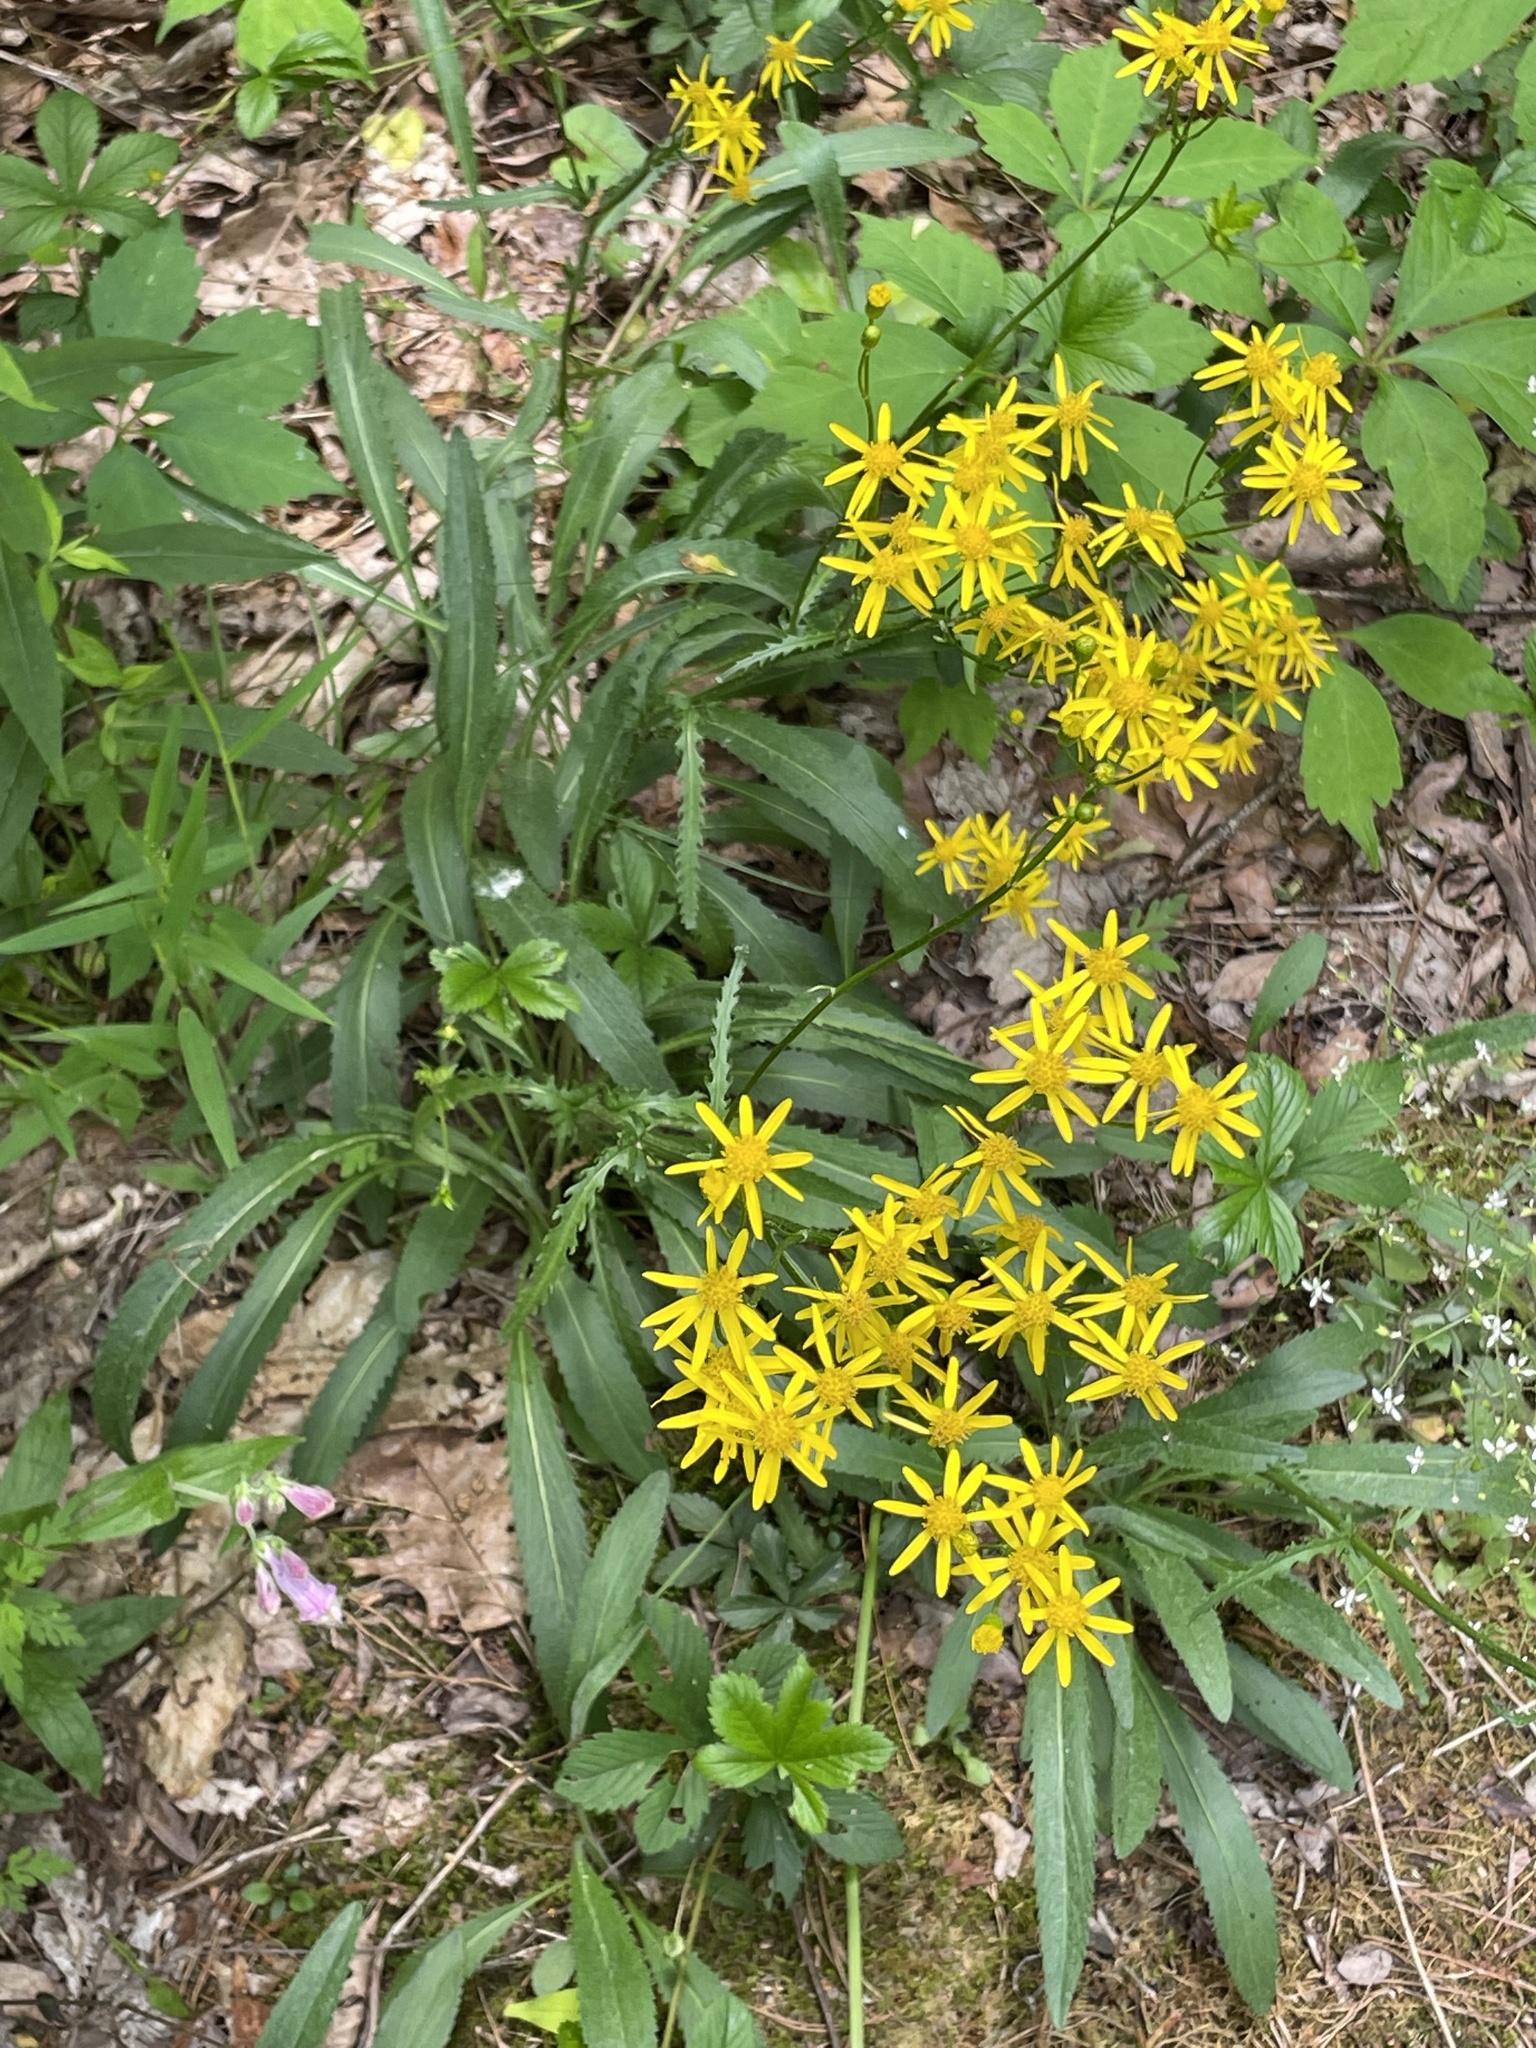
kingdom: Plantae
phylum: Tracheophyta
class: Magnoliopsida
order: Asterales
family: Asteraceae
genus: Packera
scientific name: Packera anonyma
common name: Small ragwort
